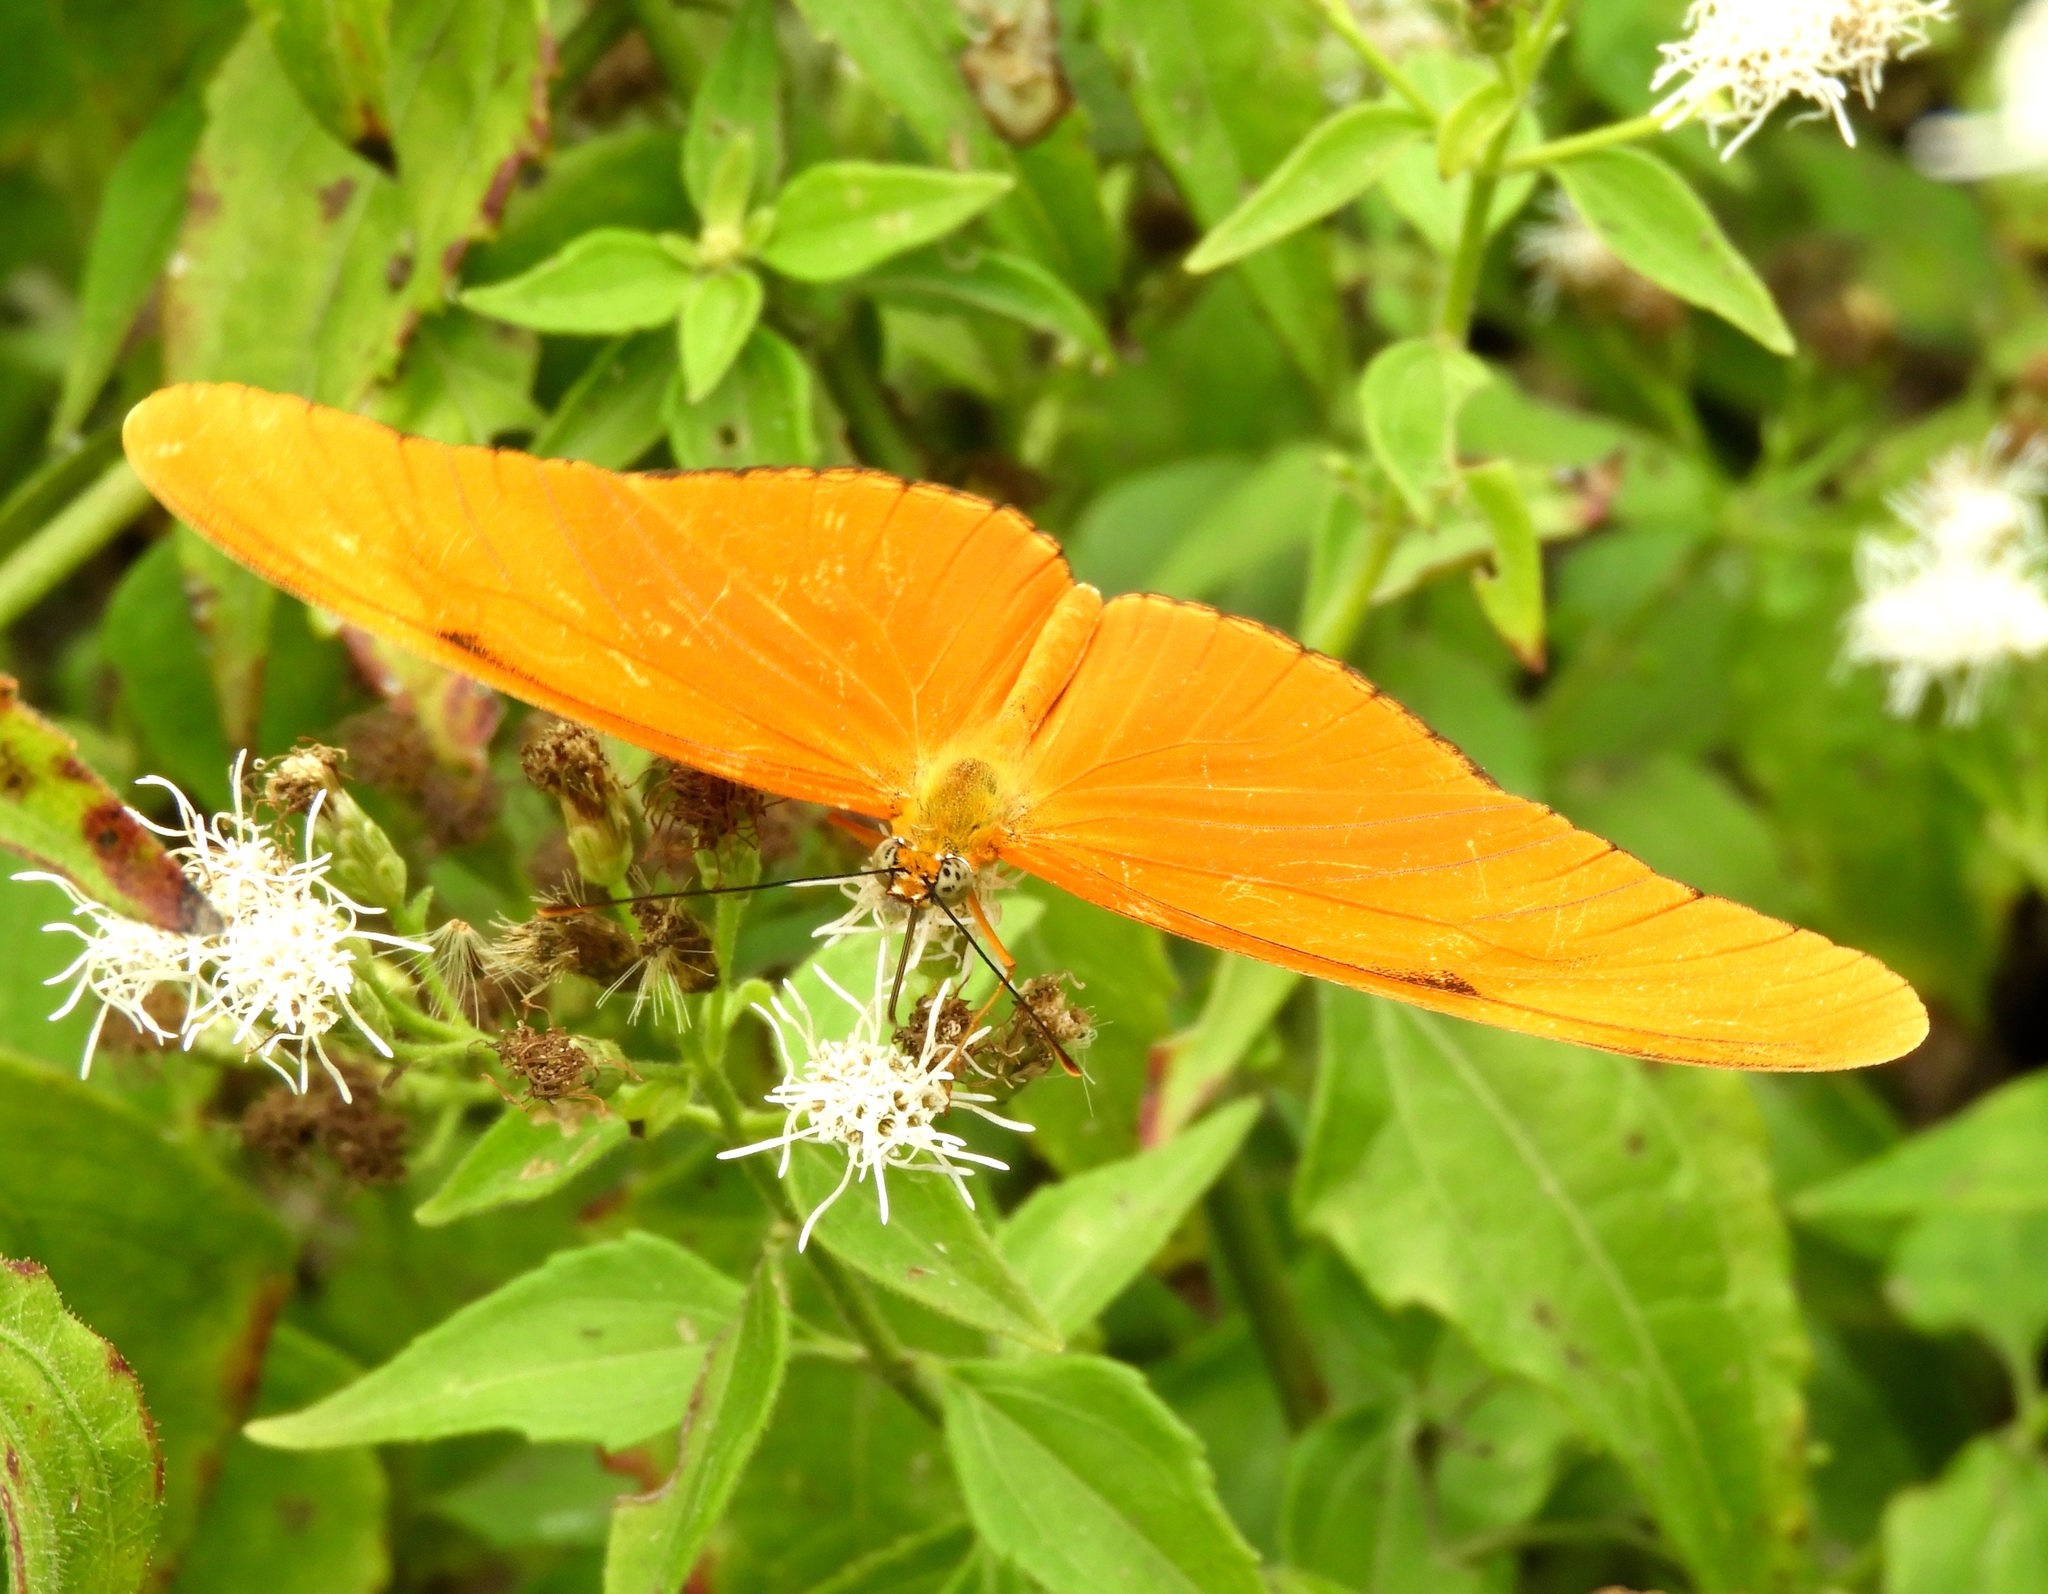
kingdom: Animalia
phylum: Arthropoda
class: Insecta
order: Lepidoptera
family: Nymphalidae
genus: Dryas
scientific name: Dryas iulia
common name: Flambeau
